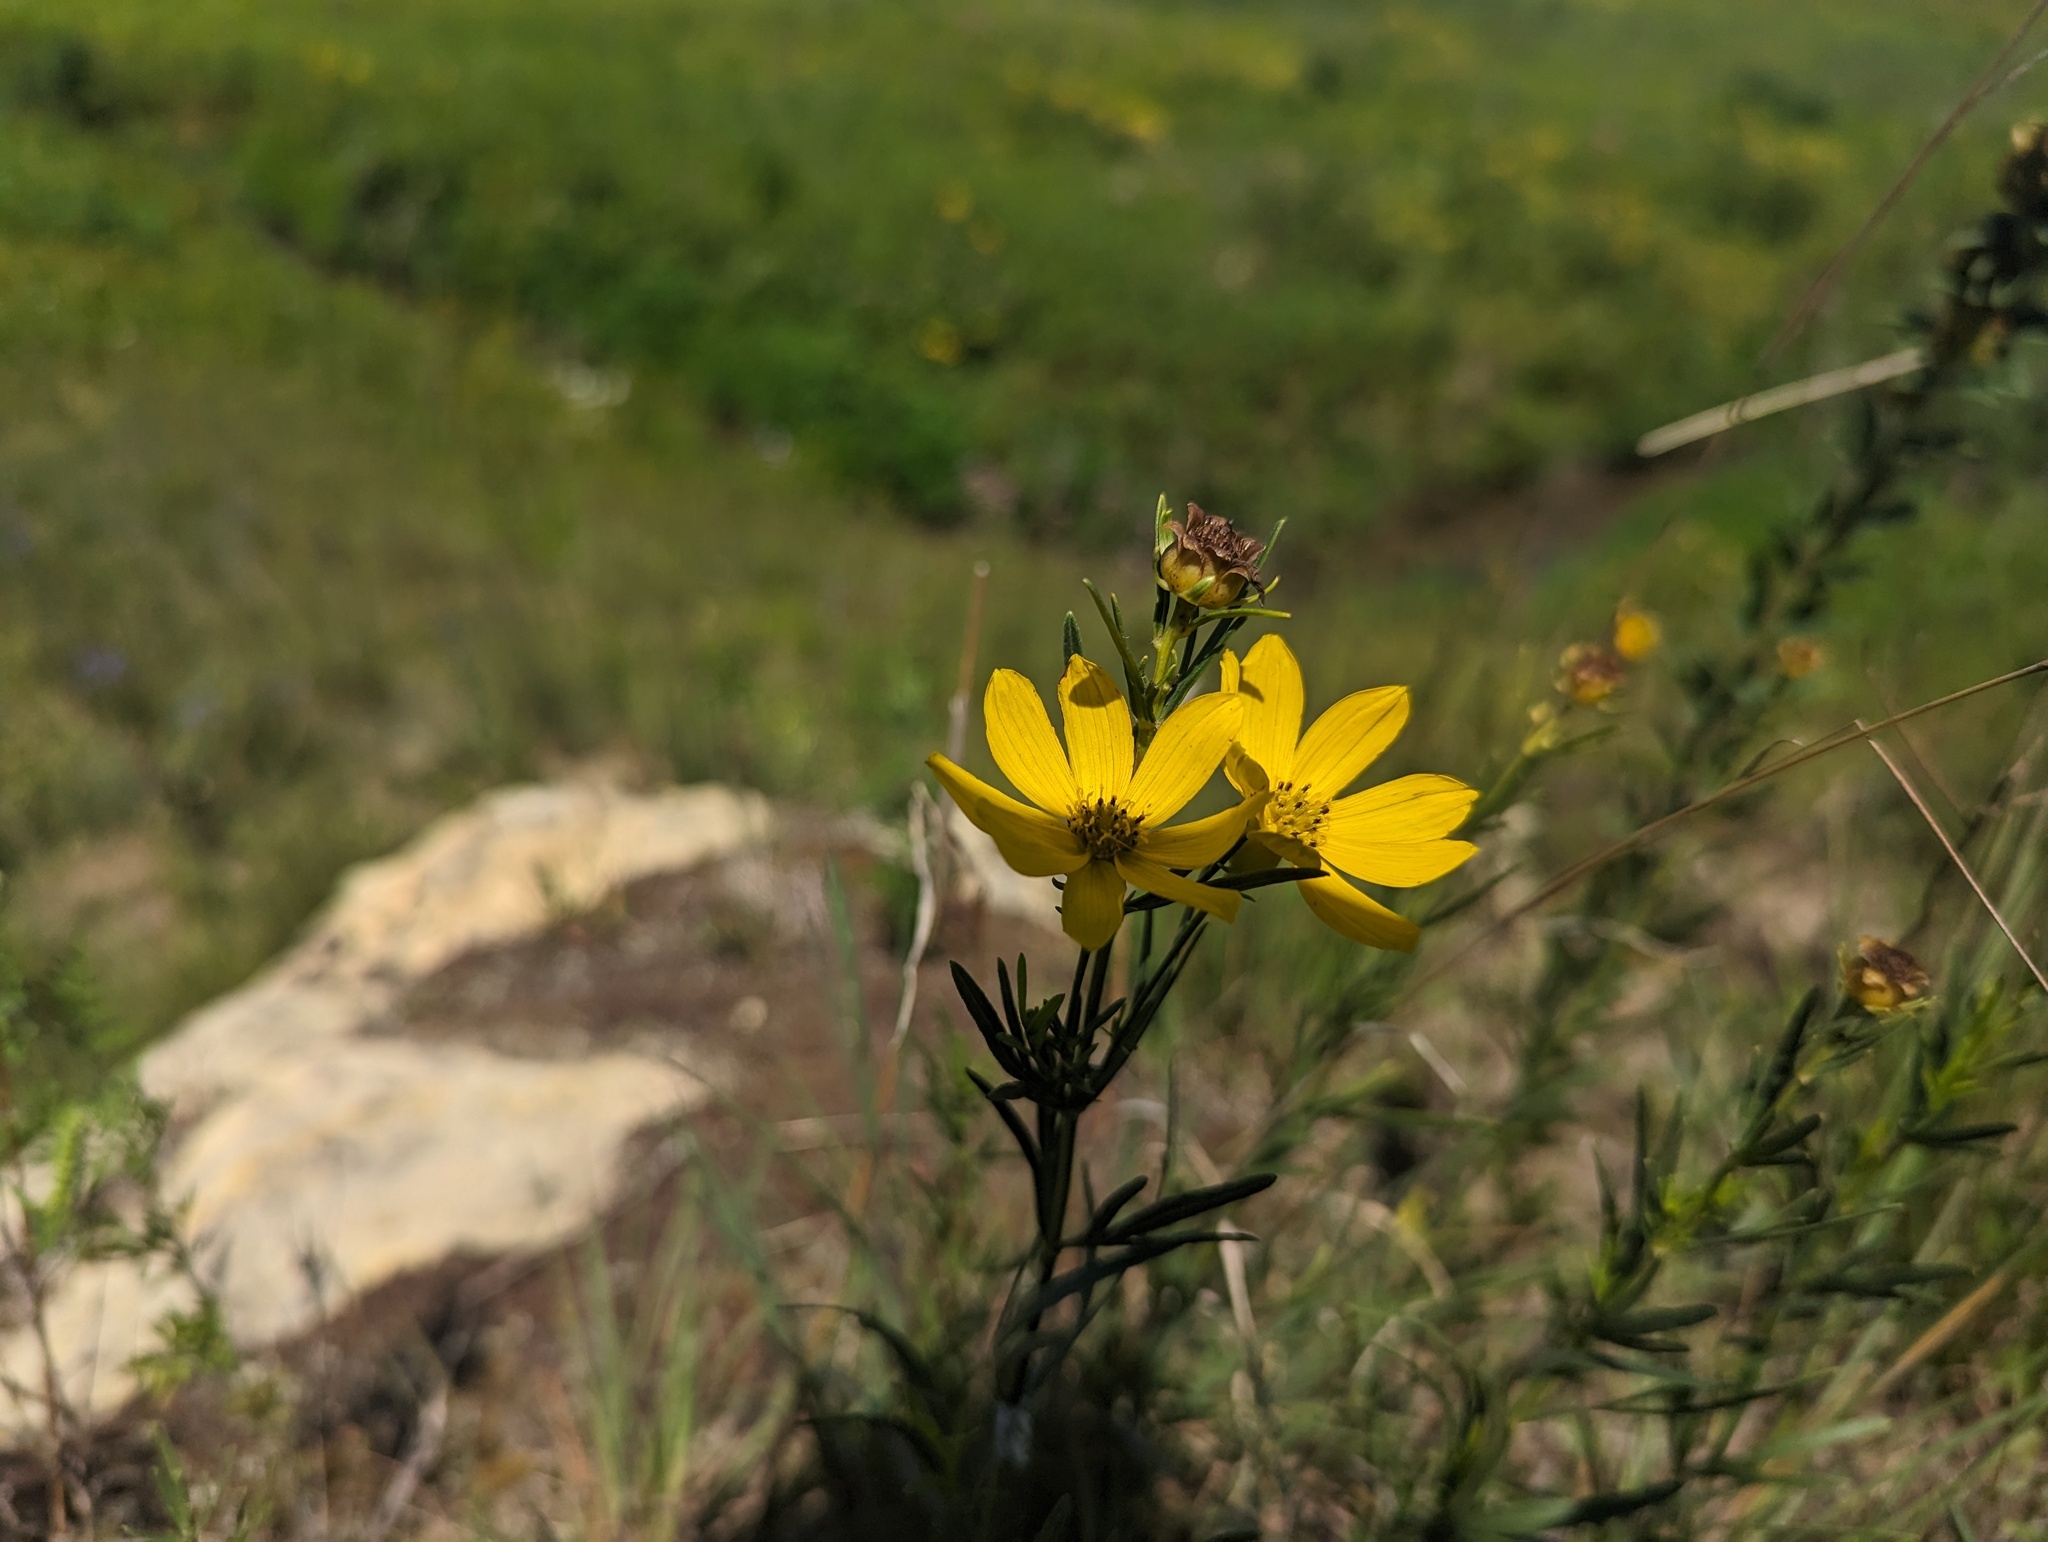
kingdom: Plantae
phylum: Tracheophyta
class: Magnoliopsida
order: Asterales
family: Asteraceae
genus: Coreopsis
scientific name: Coreopsis palmata
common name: Prairie coreopsis
